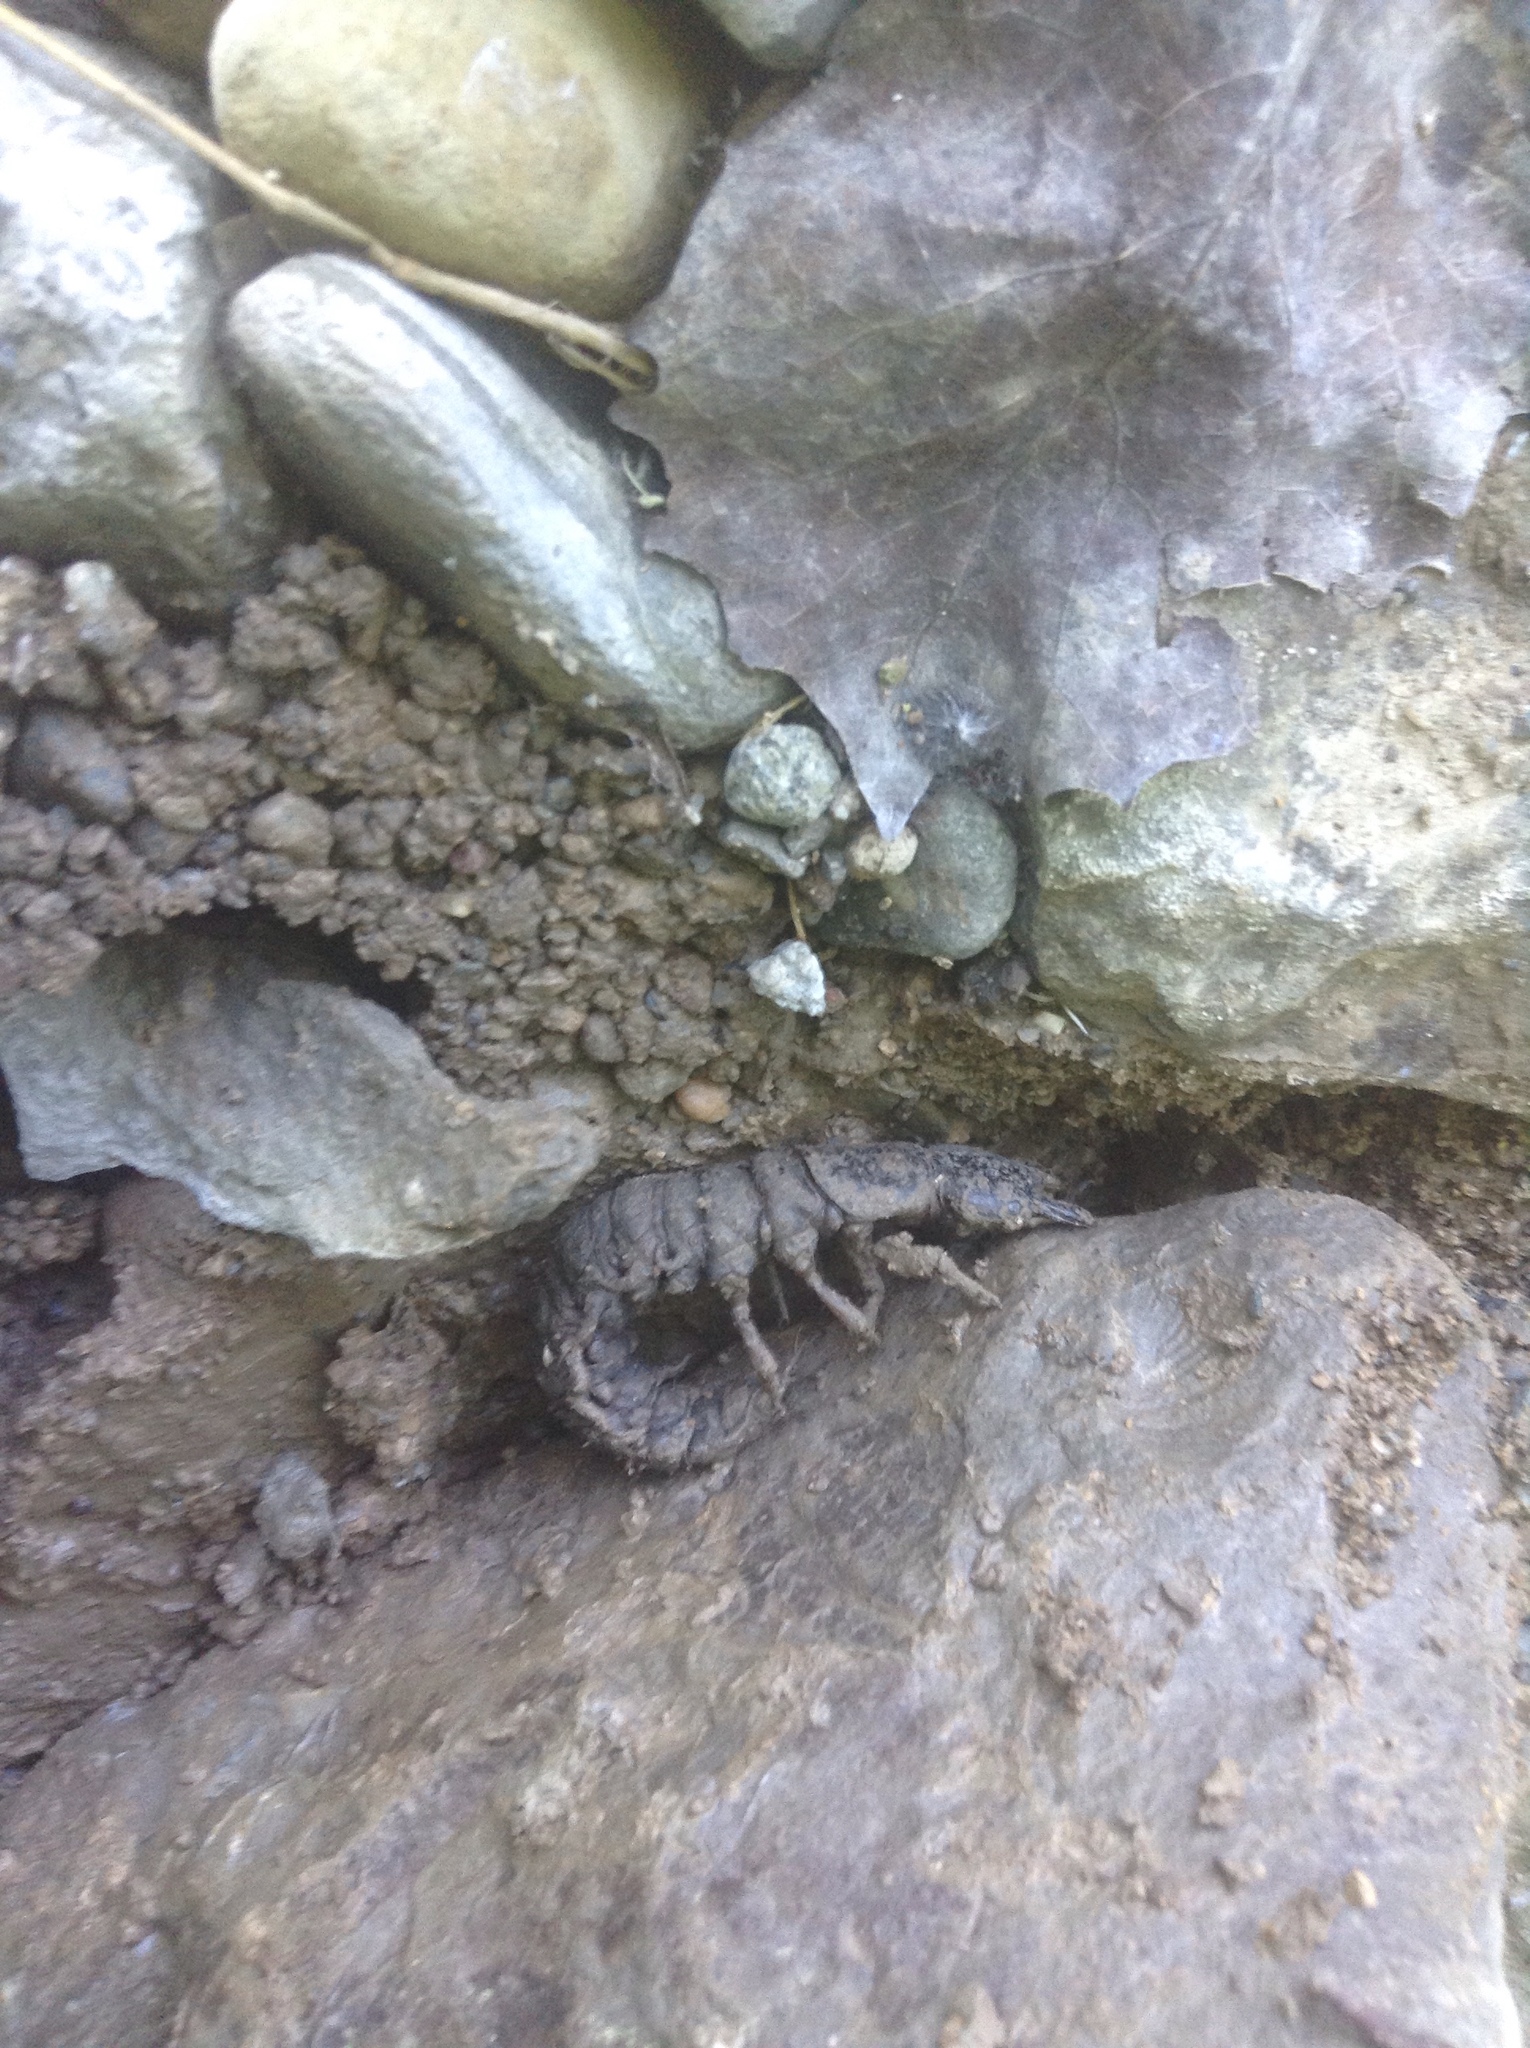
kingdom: Animalia
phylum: Arthropoda
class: Insecta
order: Megaloptera
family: Corydalidae
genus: Corydalus
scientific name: Corydalus cornutus
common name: Dobsonfly
